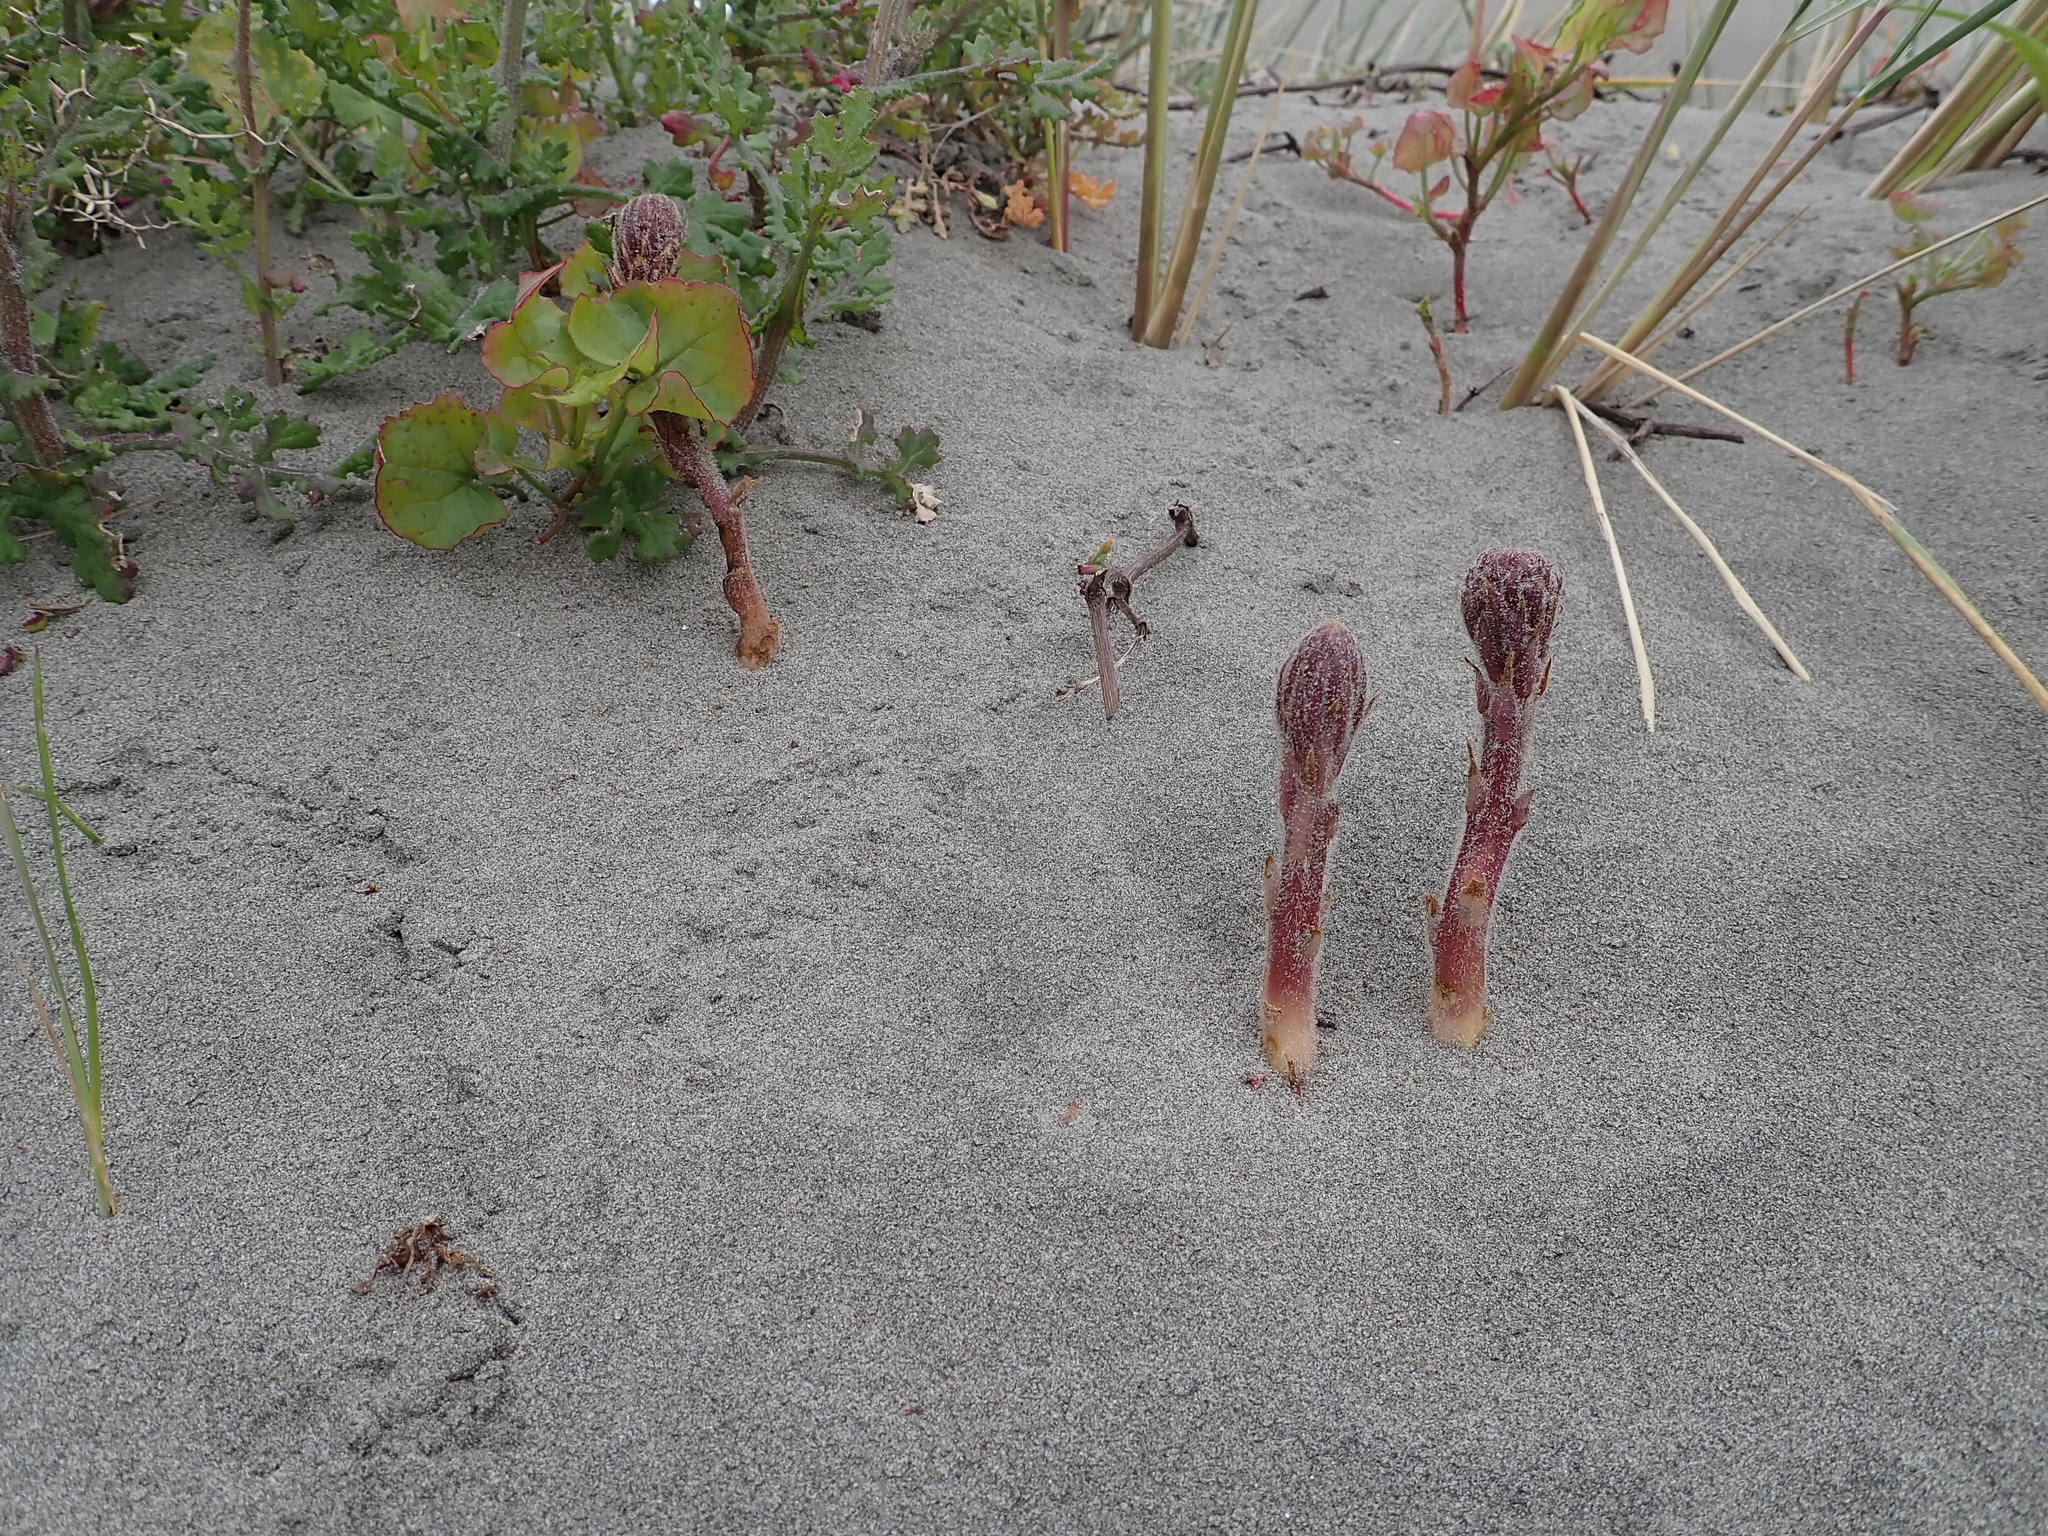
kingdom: Plantae
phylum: Tracheophyta
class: Magnoliopsida
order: Lamiales
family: Orobanchaceae
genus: Orobanche
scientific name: Orobanche minor
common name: Common broomrape
